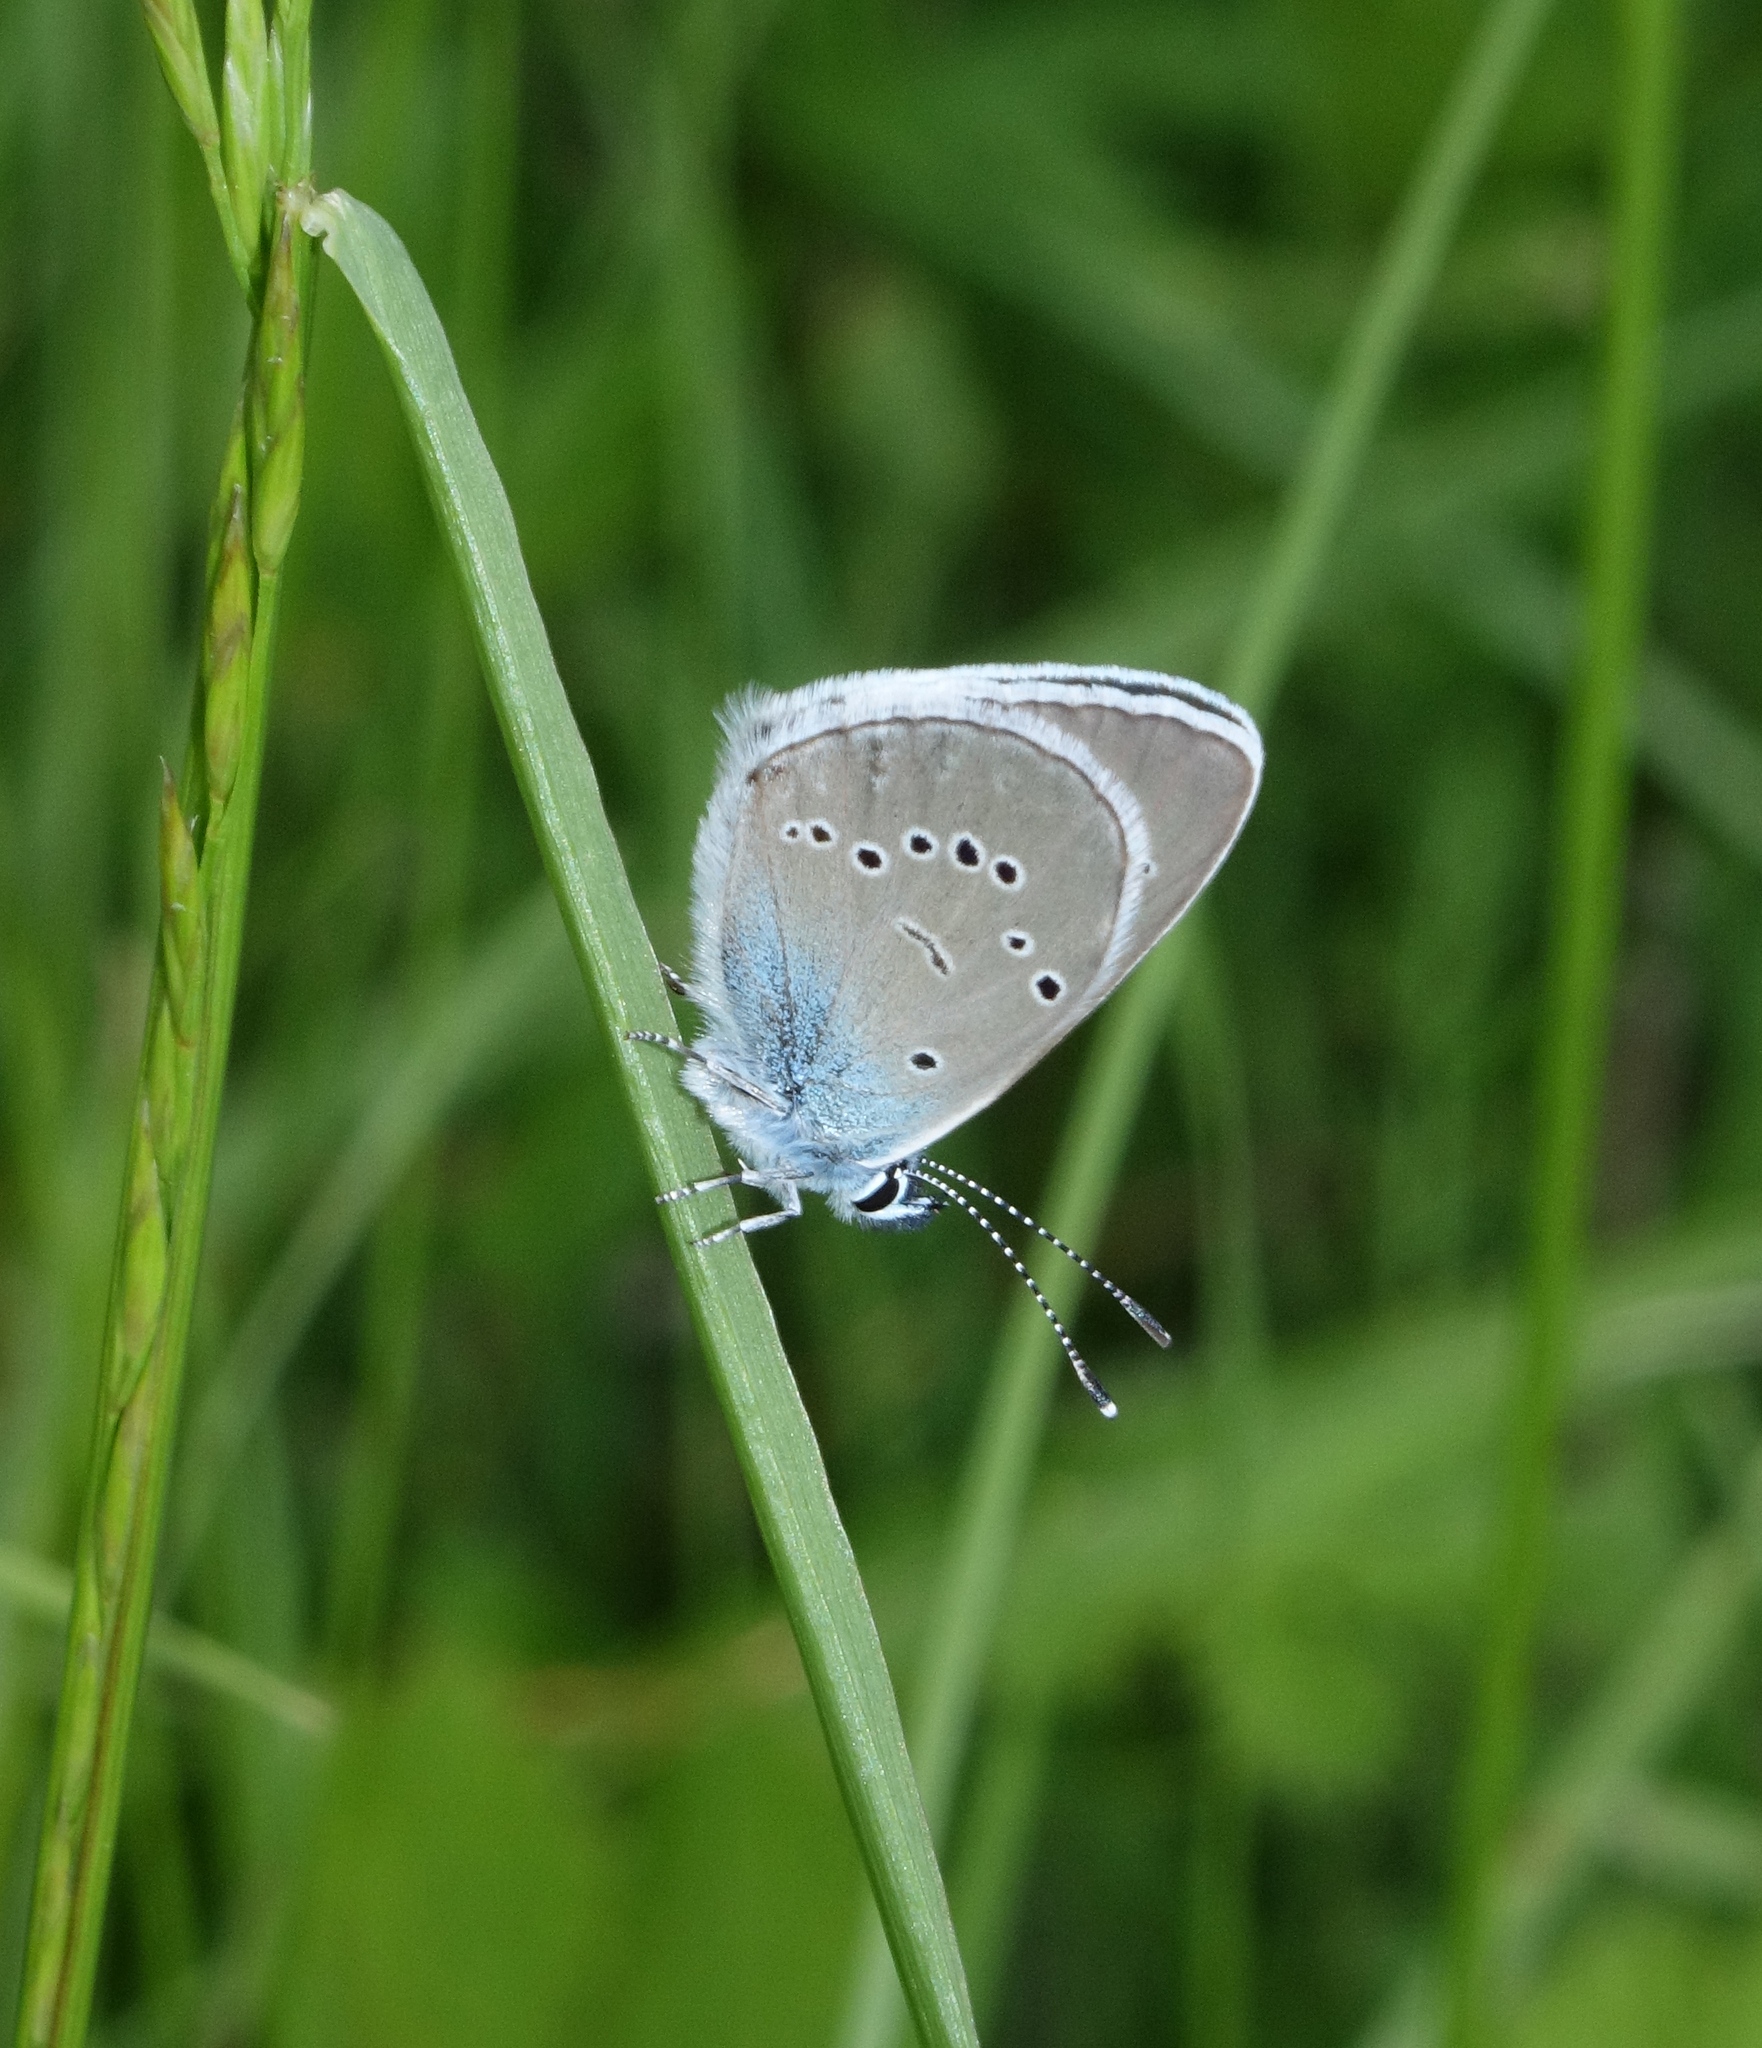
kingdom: Animalia
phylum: Arthropoda
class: Insecta
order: Lepidoptera
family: Lycaenidae
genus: Cyaniris
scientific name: Cyaniris semiargus
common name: Mazarine blue
